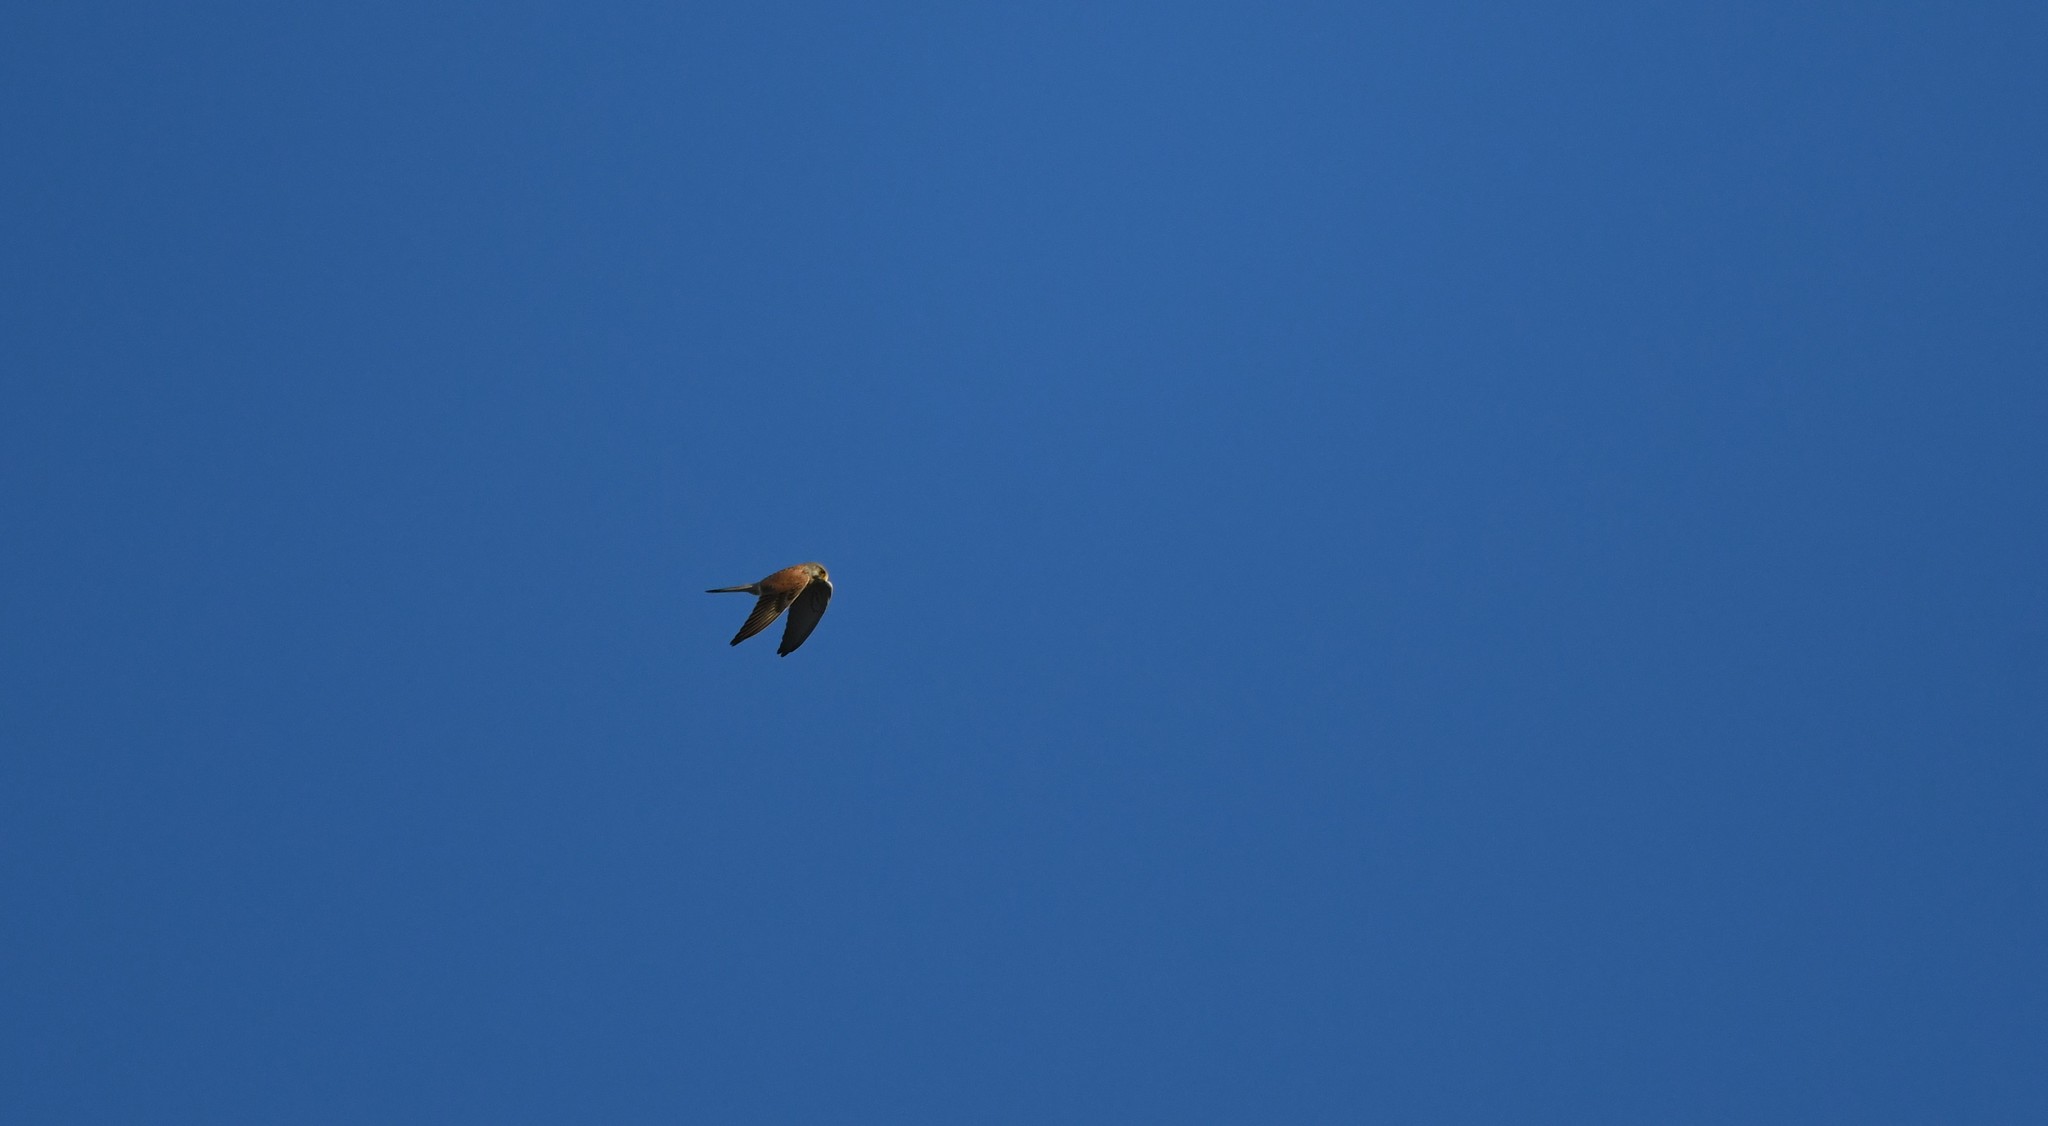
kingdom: Animalia
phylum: Chordata
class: Aves
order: Falconiformes
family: Falconidae
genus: Falco
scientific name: Falco tinnunculus
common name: Common kestrel
